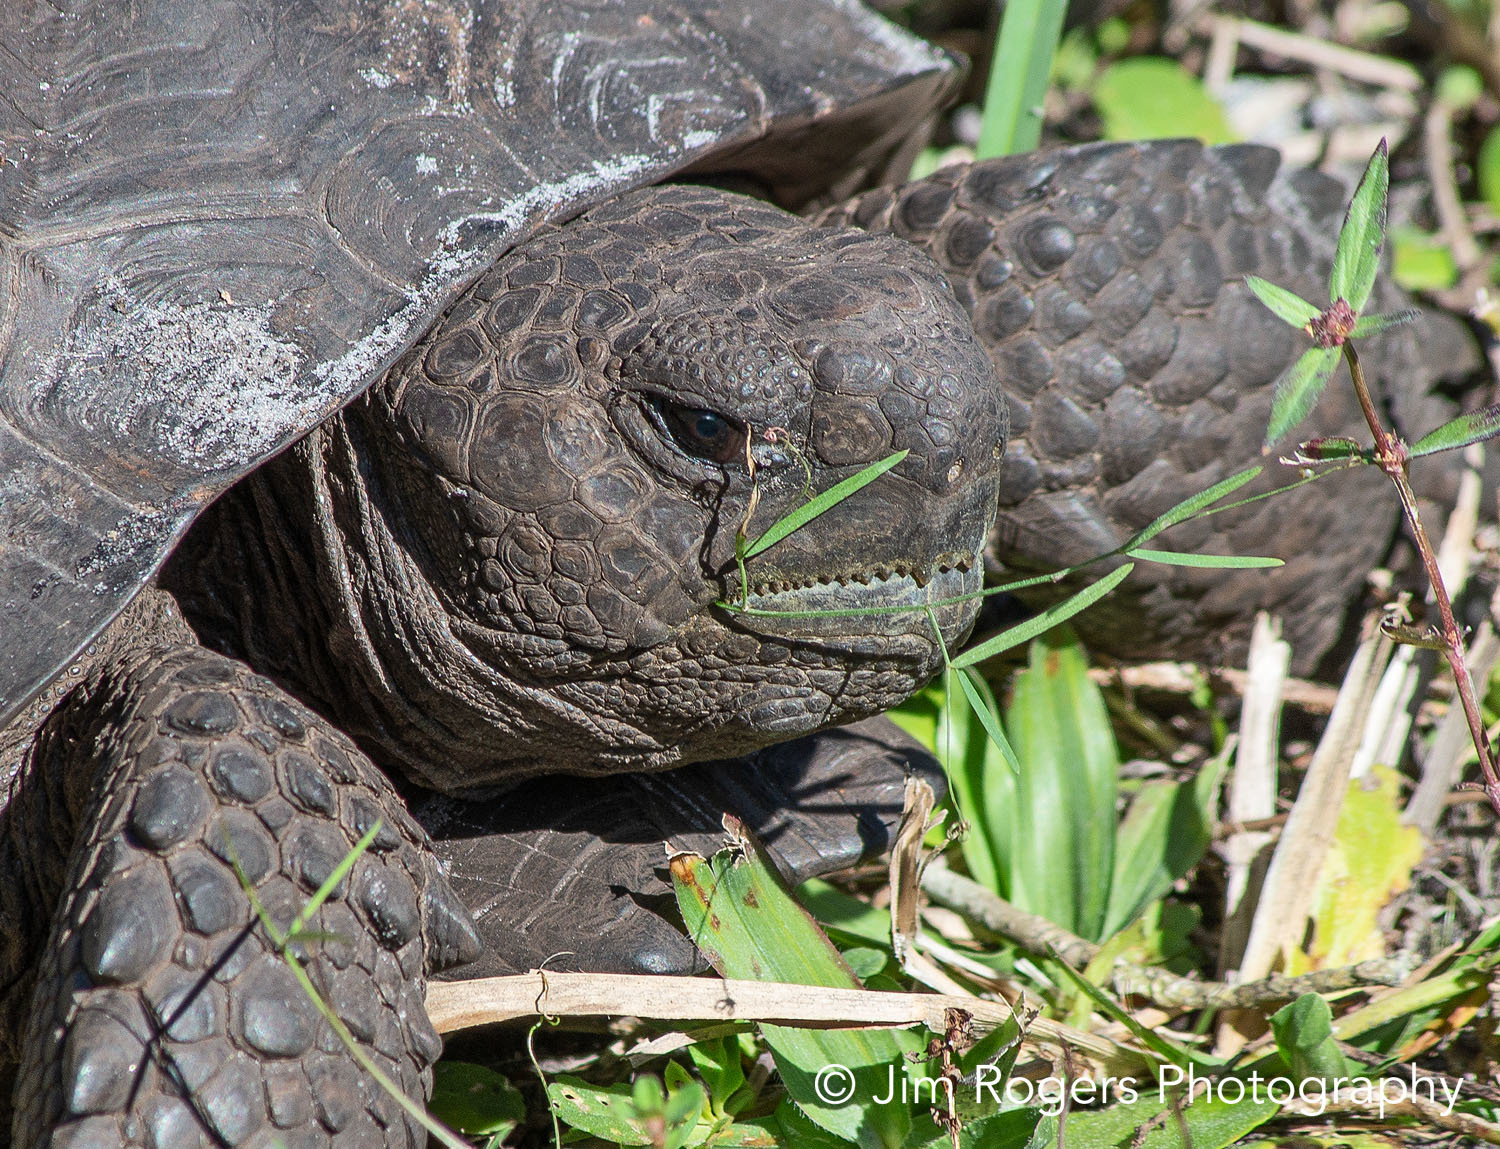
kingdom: Animalia
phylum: Chordata
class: Testudines
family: Testudinidae
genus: Gopherus
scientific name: Gopherus polyphemus
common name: Florida gopher tortoise
